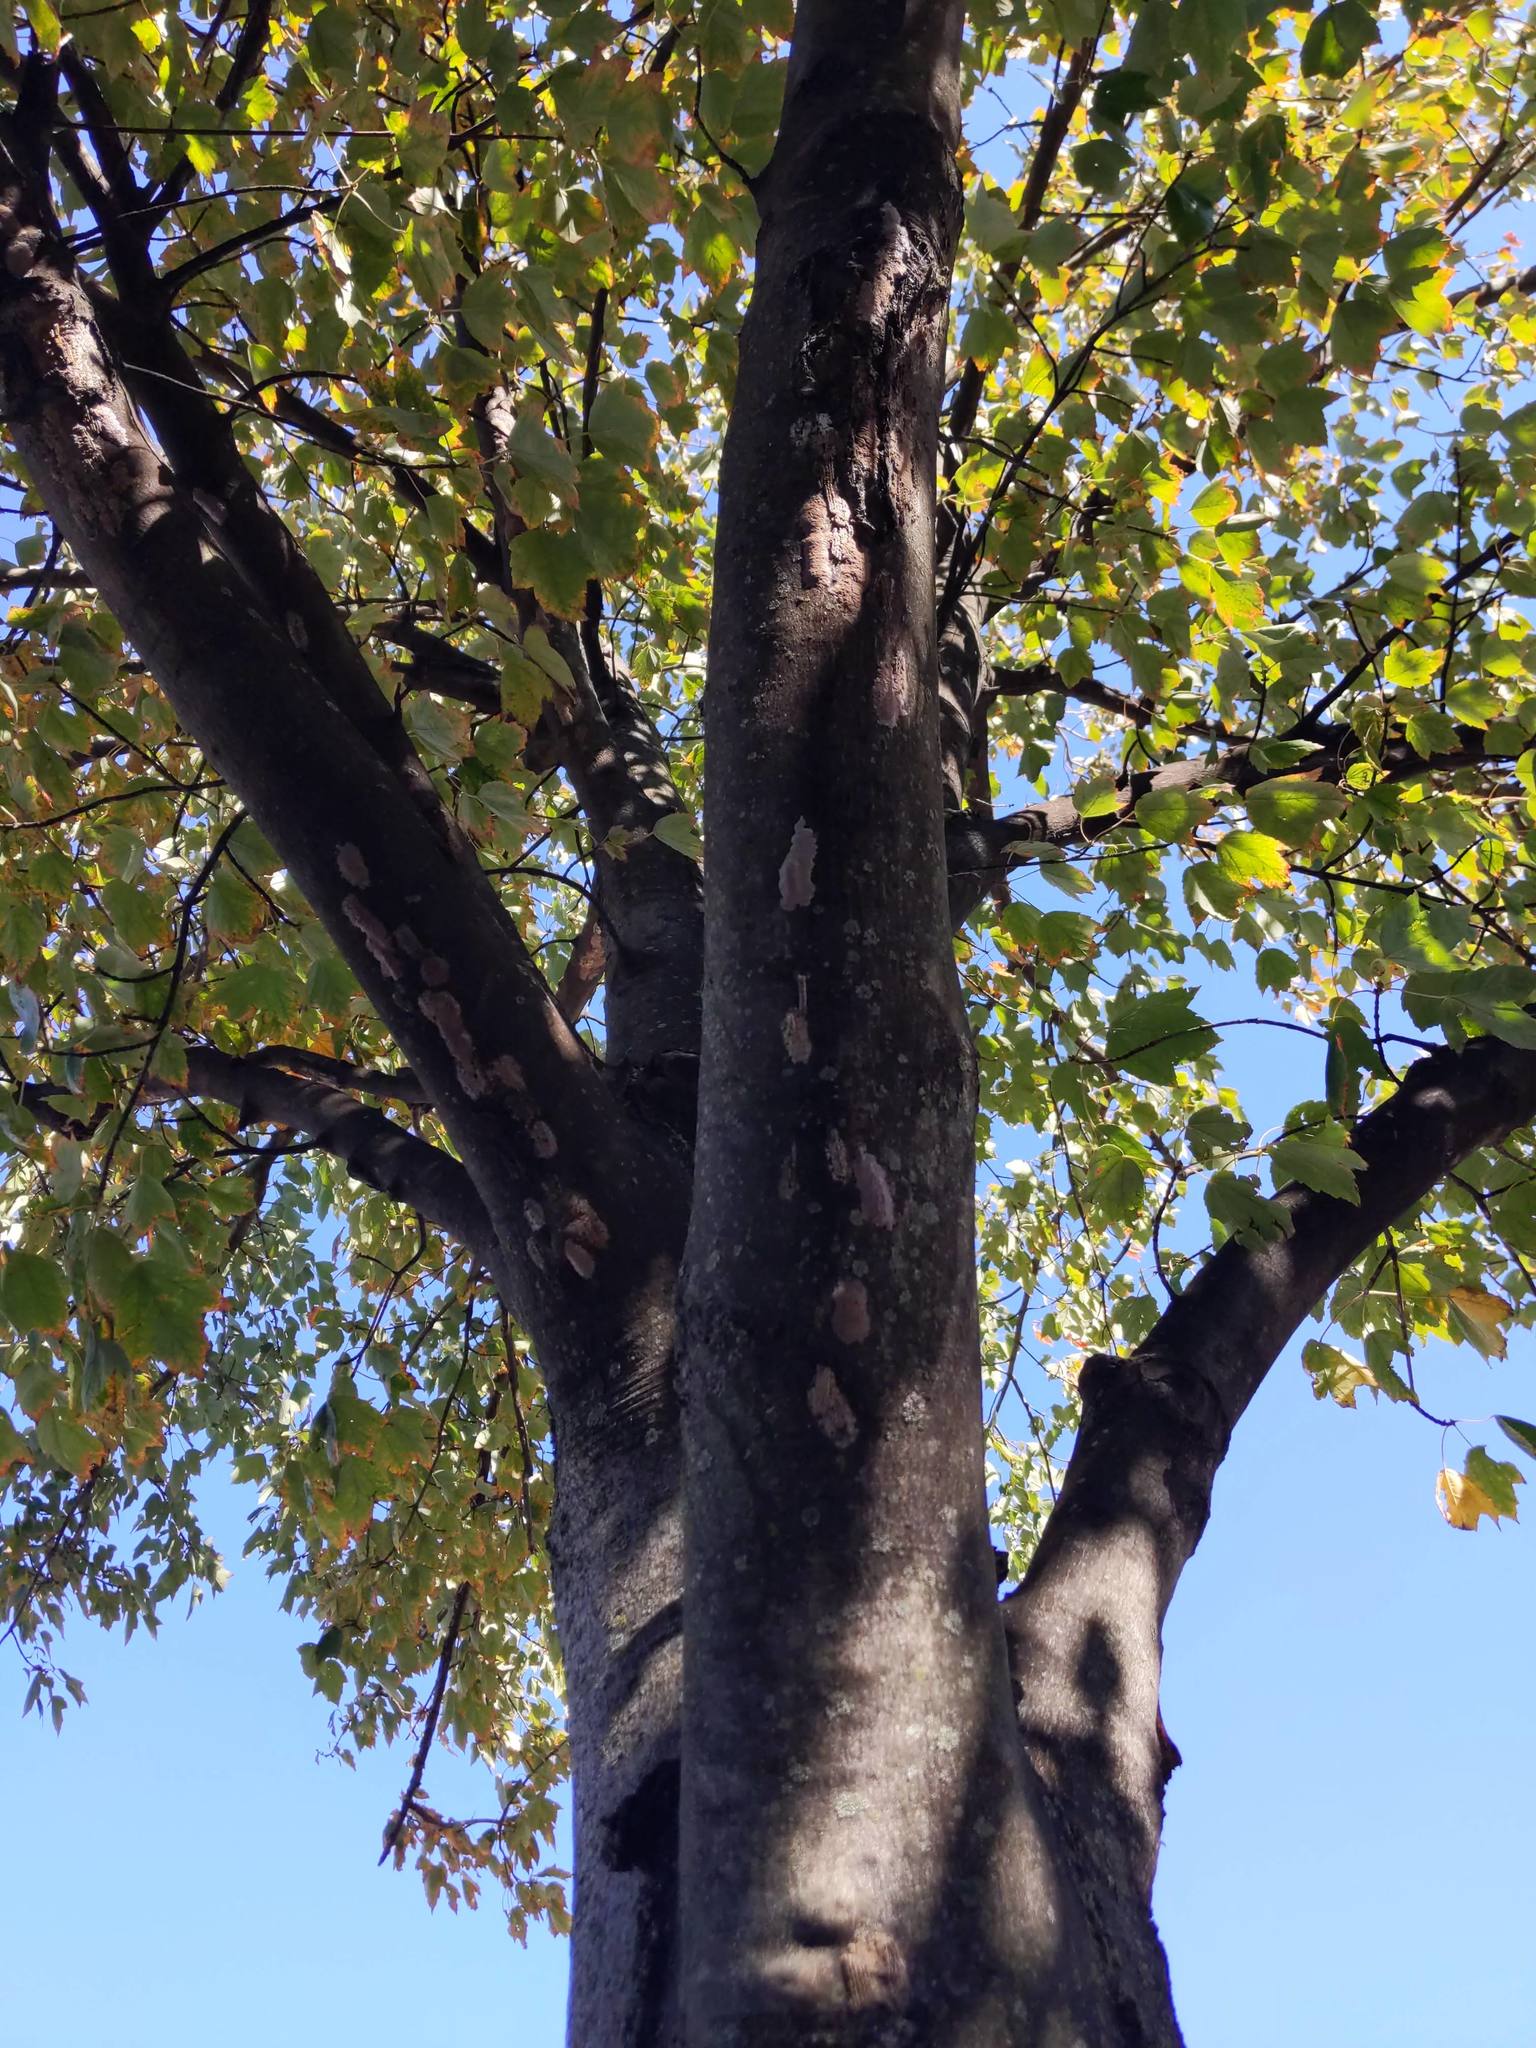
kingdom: Animalia
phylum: Arthropoda
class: Insecta
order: Hemiptera
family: Fulgoridae
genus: Lycorma
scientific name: Lycorma delicatula
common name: Spotted lanternfly
